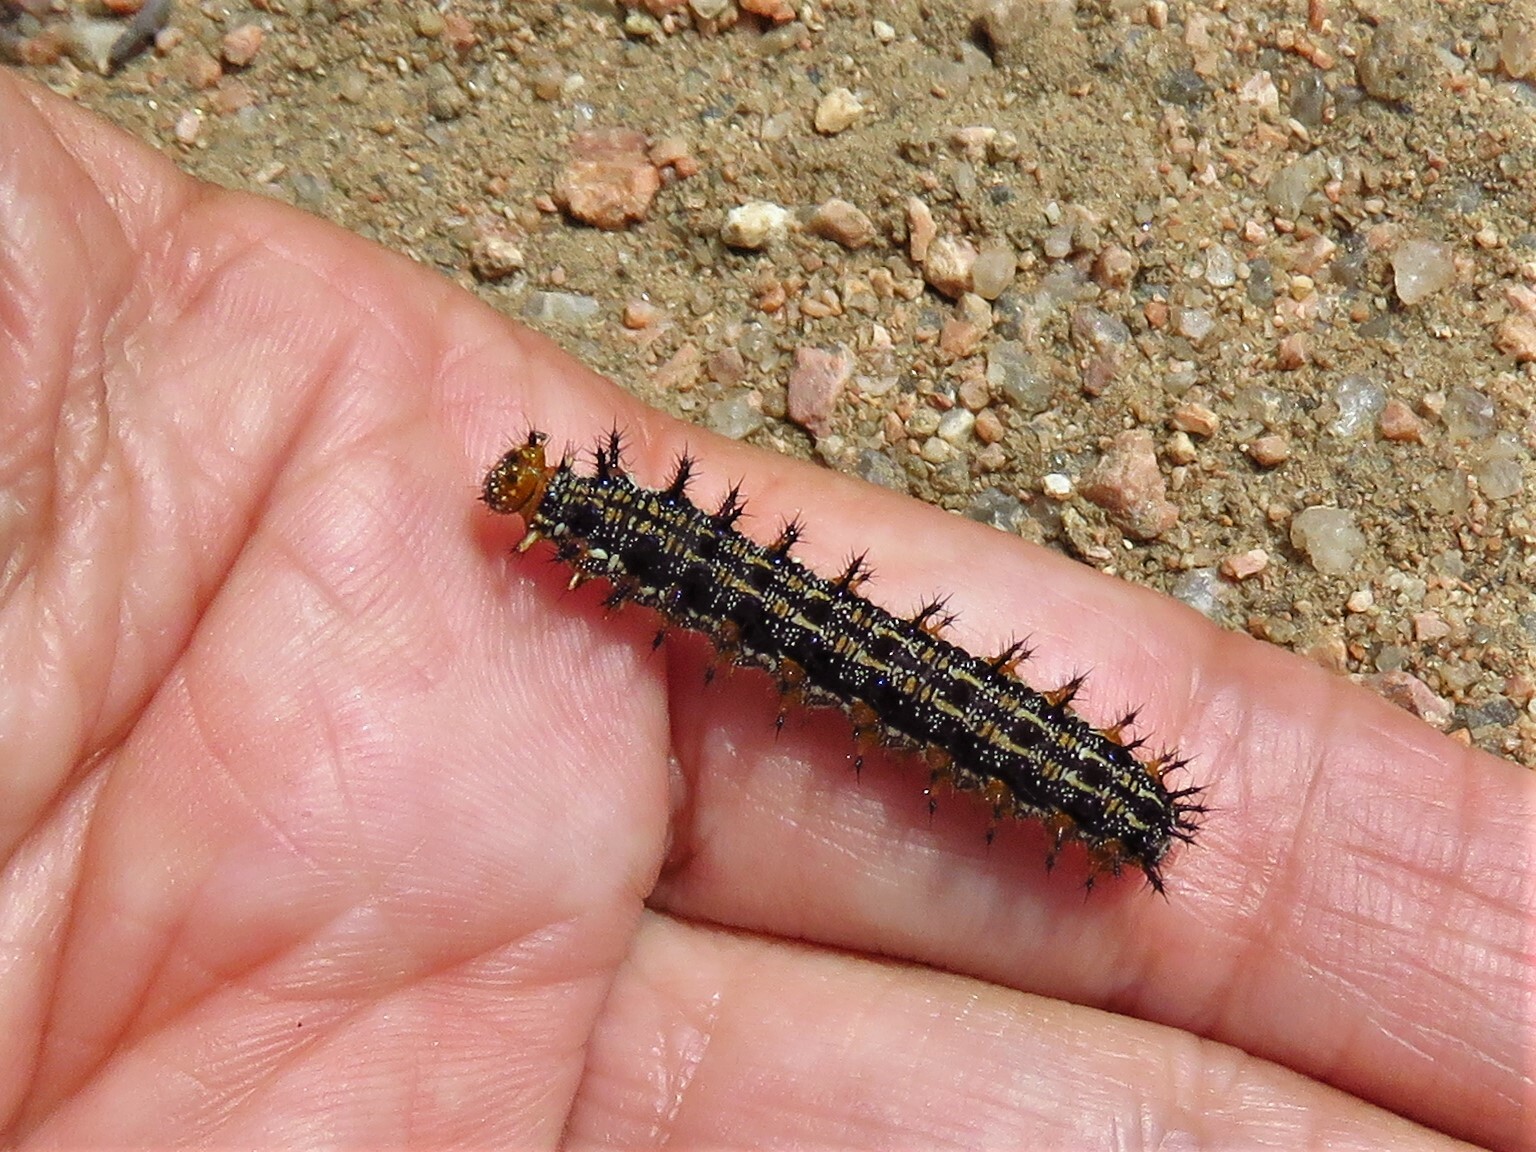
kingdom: Animalia
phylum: Arthropoda
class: Insecta
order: Lepidoptera
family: Nymphalidae
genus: Junonia
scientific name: Junonia coenia
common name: Common buckeye
